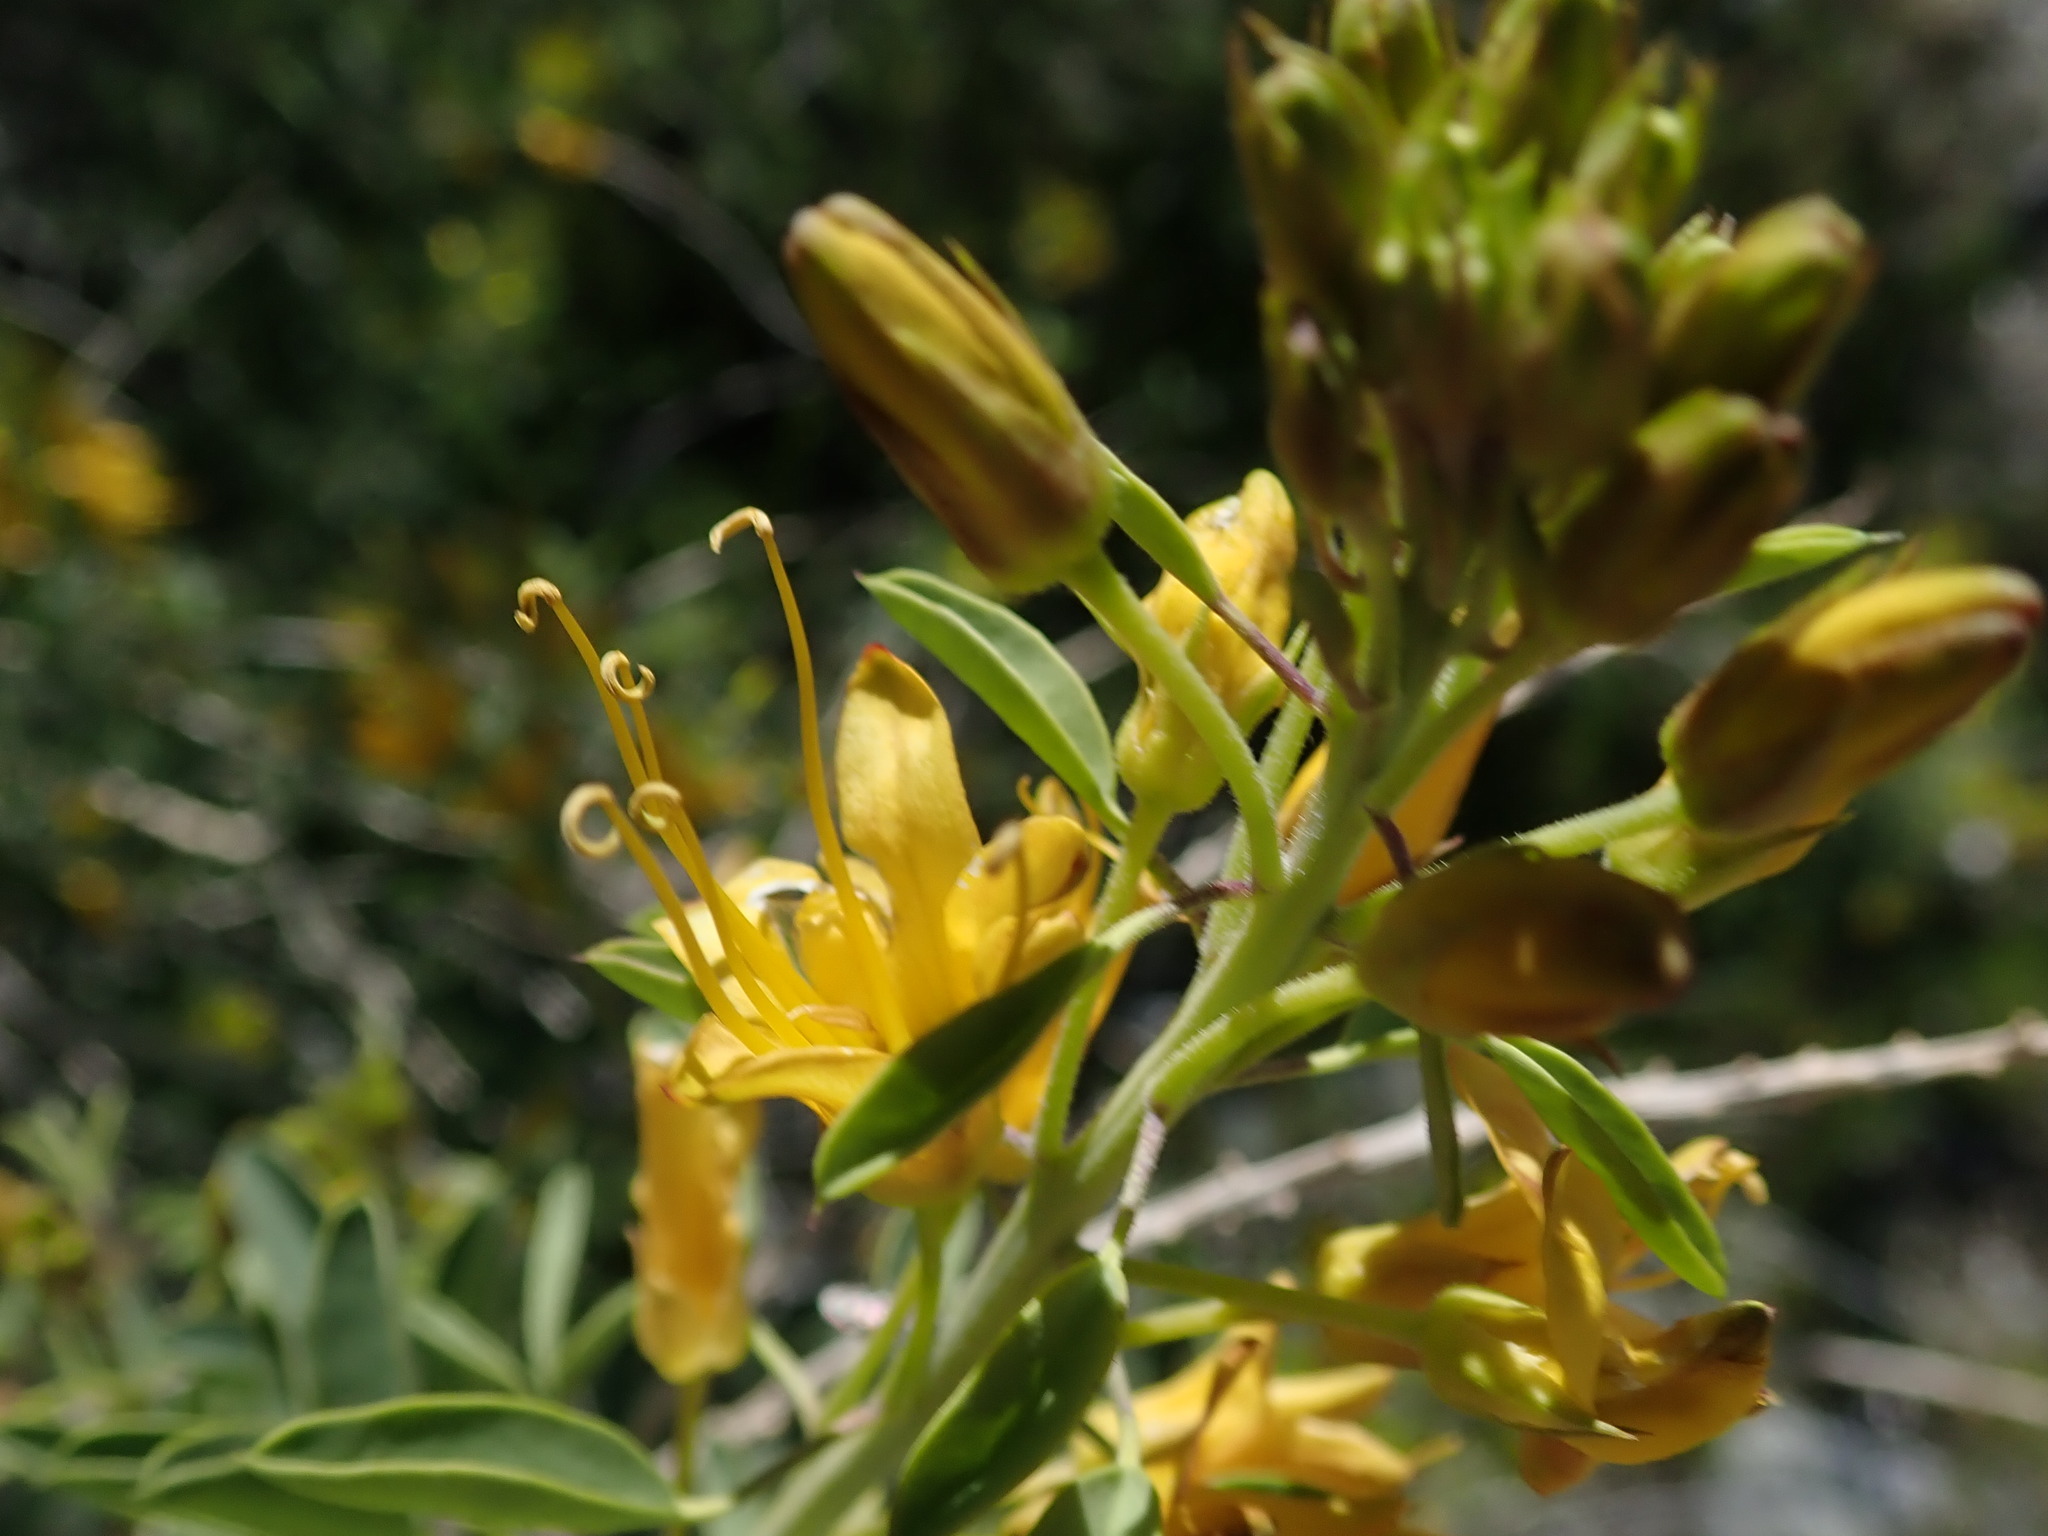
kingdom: Plantae
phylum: Tracheophyta
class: Magnoliopsida
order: Brassicales
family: Cleomaceae
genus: Cleomella
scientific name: Cleomella arborea
